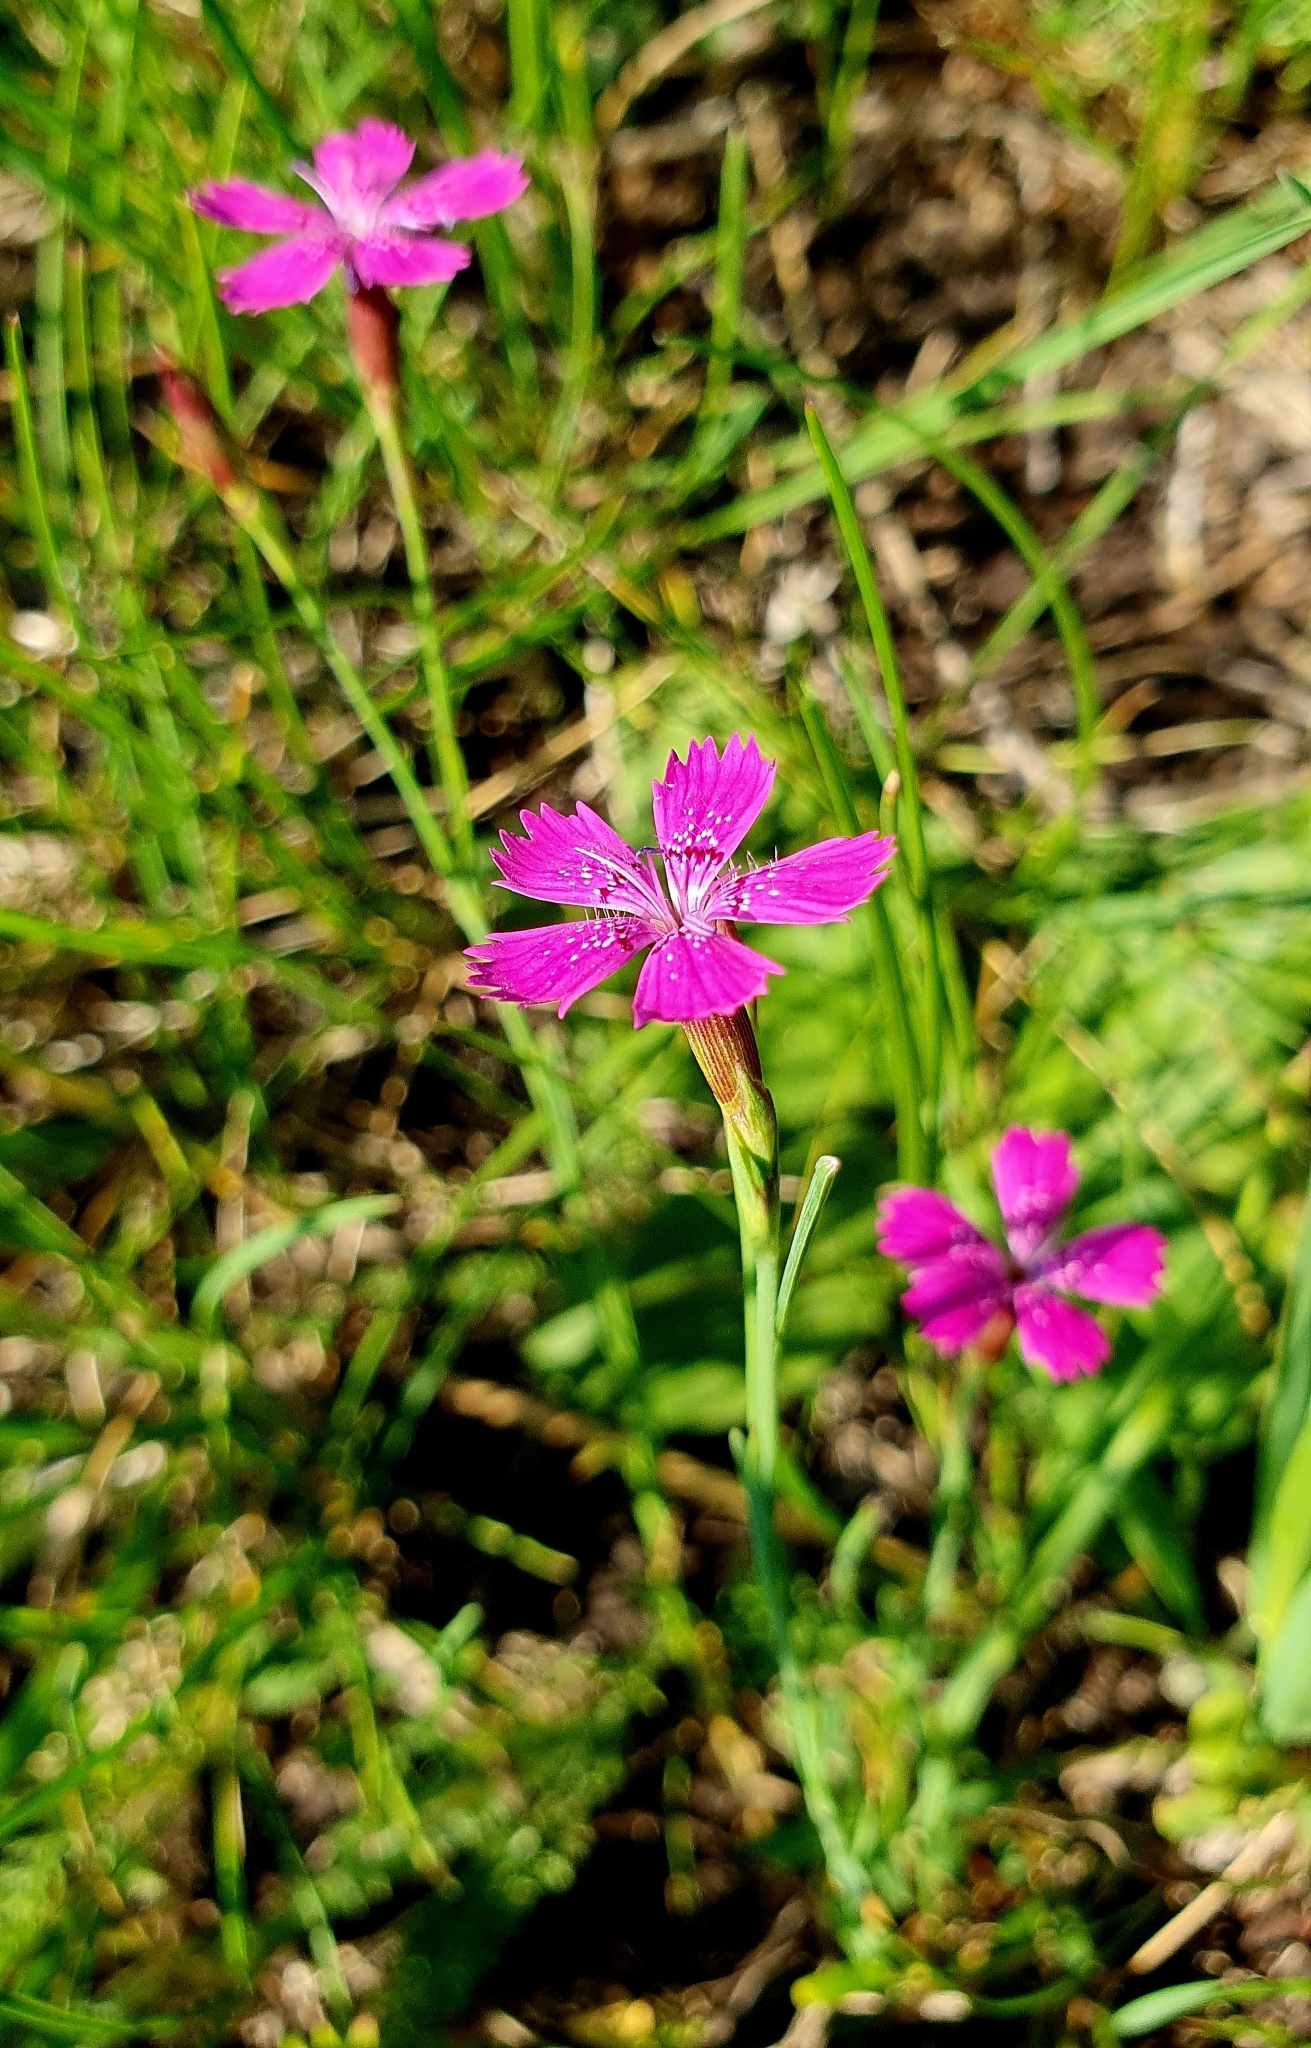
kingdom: Plantae
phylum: Tracheophyta
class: Magnoliopsida
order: Caryophyllales
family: Caryophyllaceae
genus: Dianthus
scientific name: Dianthus deltoides
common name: Maiden pink
